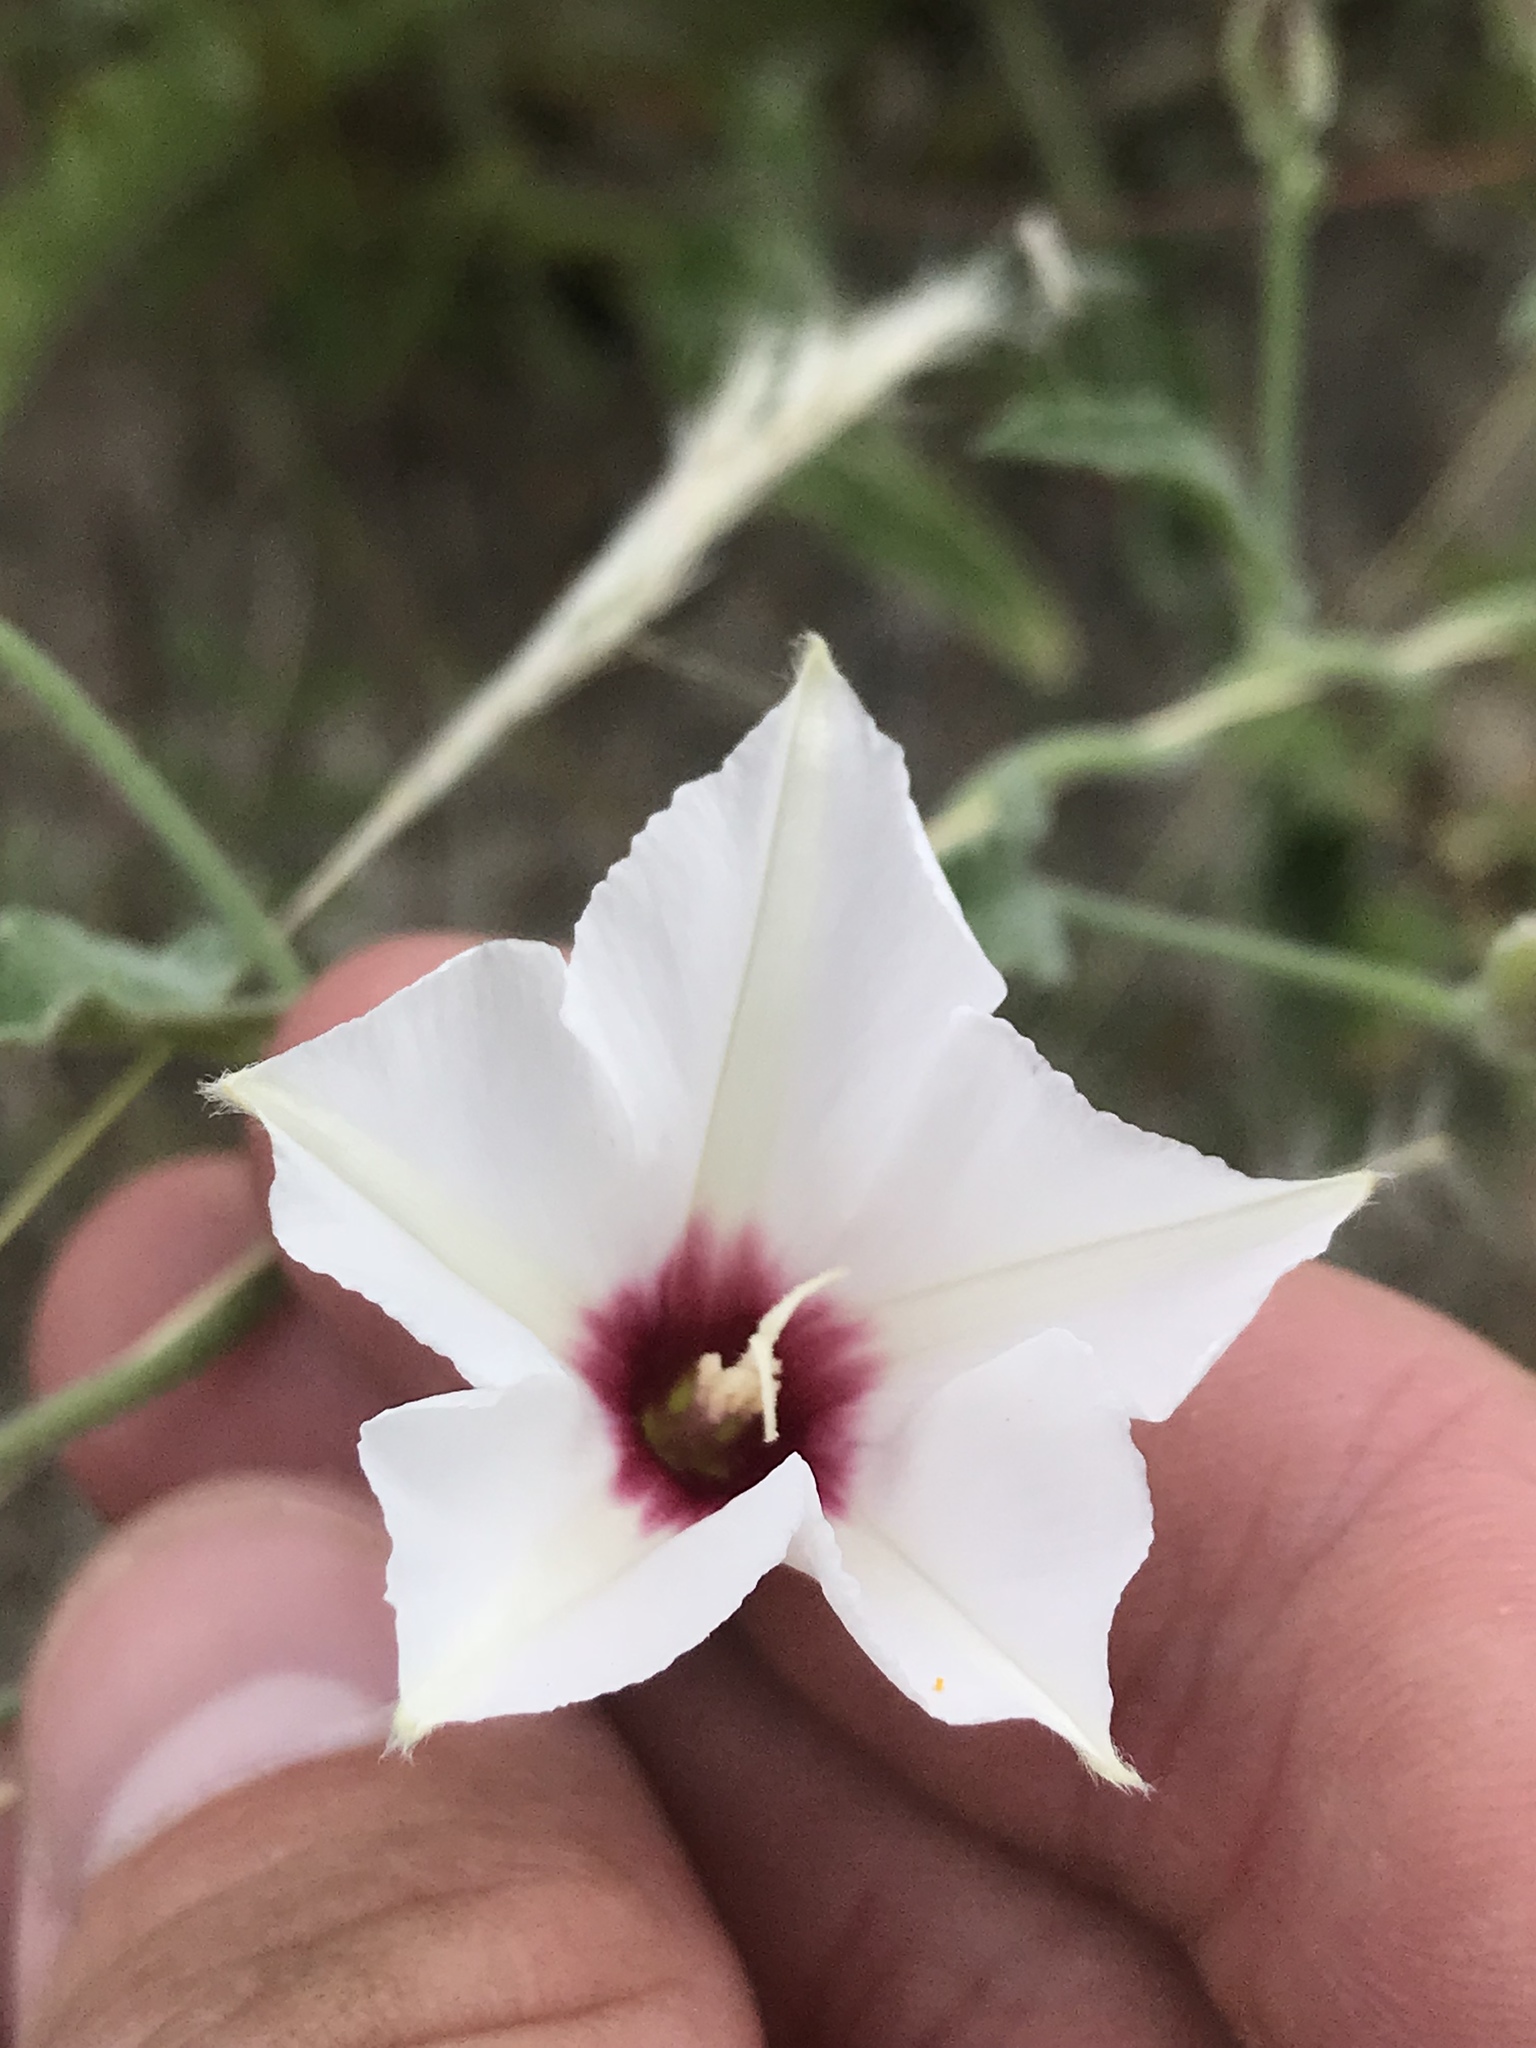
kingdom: Plantae
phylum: Tracheophyta
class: Magnoliopsida
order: Solanales
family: Convolvulaceae
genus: Convolvulus
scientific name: Convolvulus equitans
